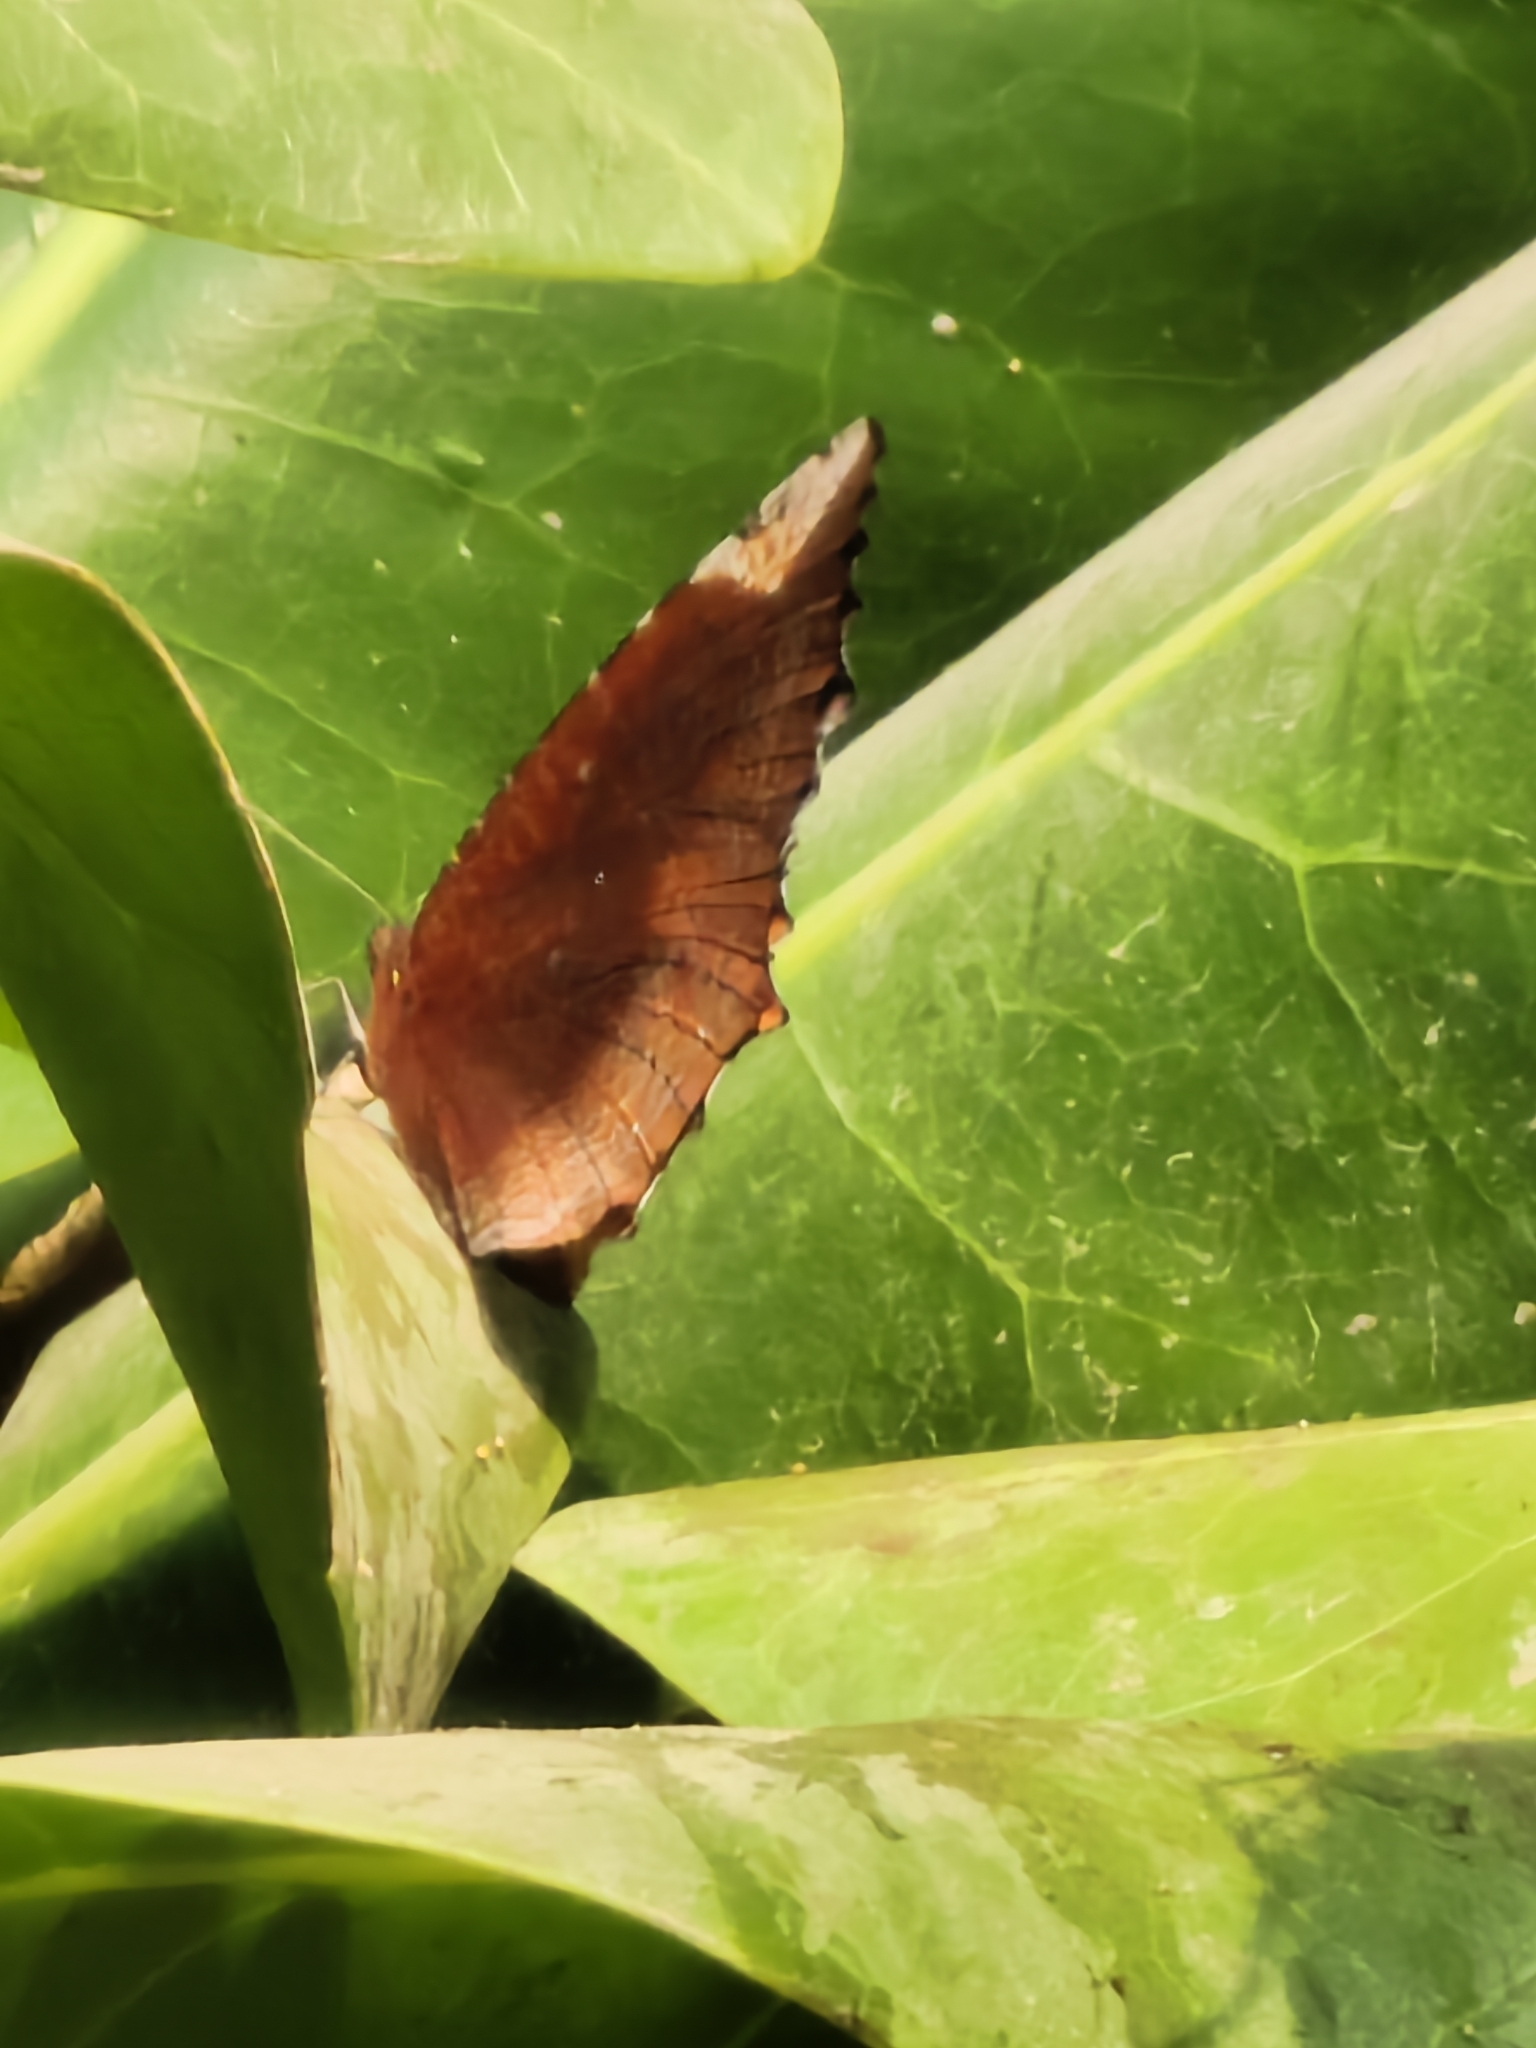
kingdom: Animalia
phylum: Arthropoda
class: Insecta
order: Lepidoptera
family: Nymphalidae
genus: Elymnias
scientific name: Elymnias hypermnestra
